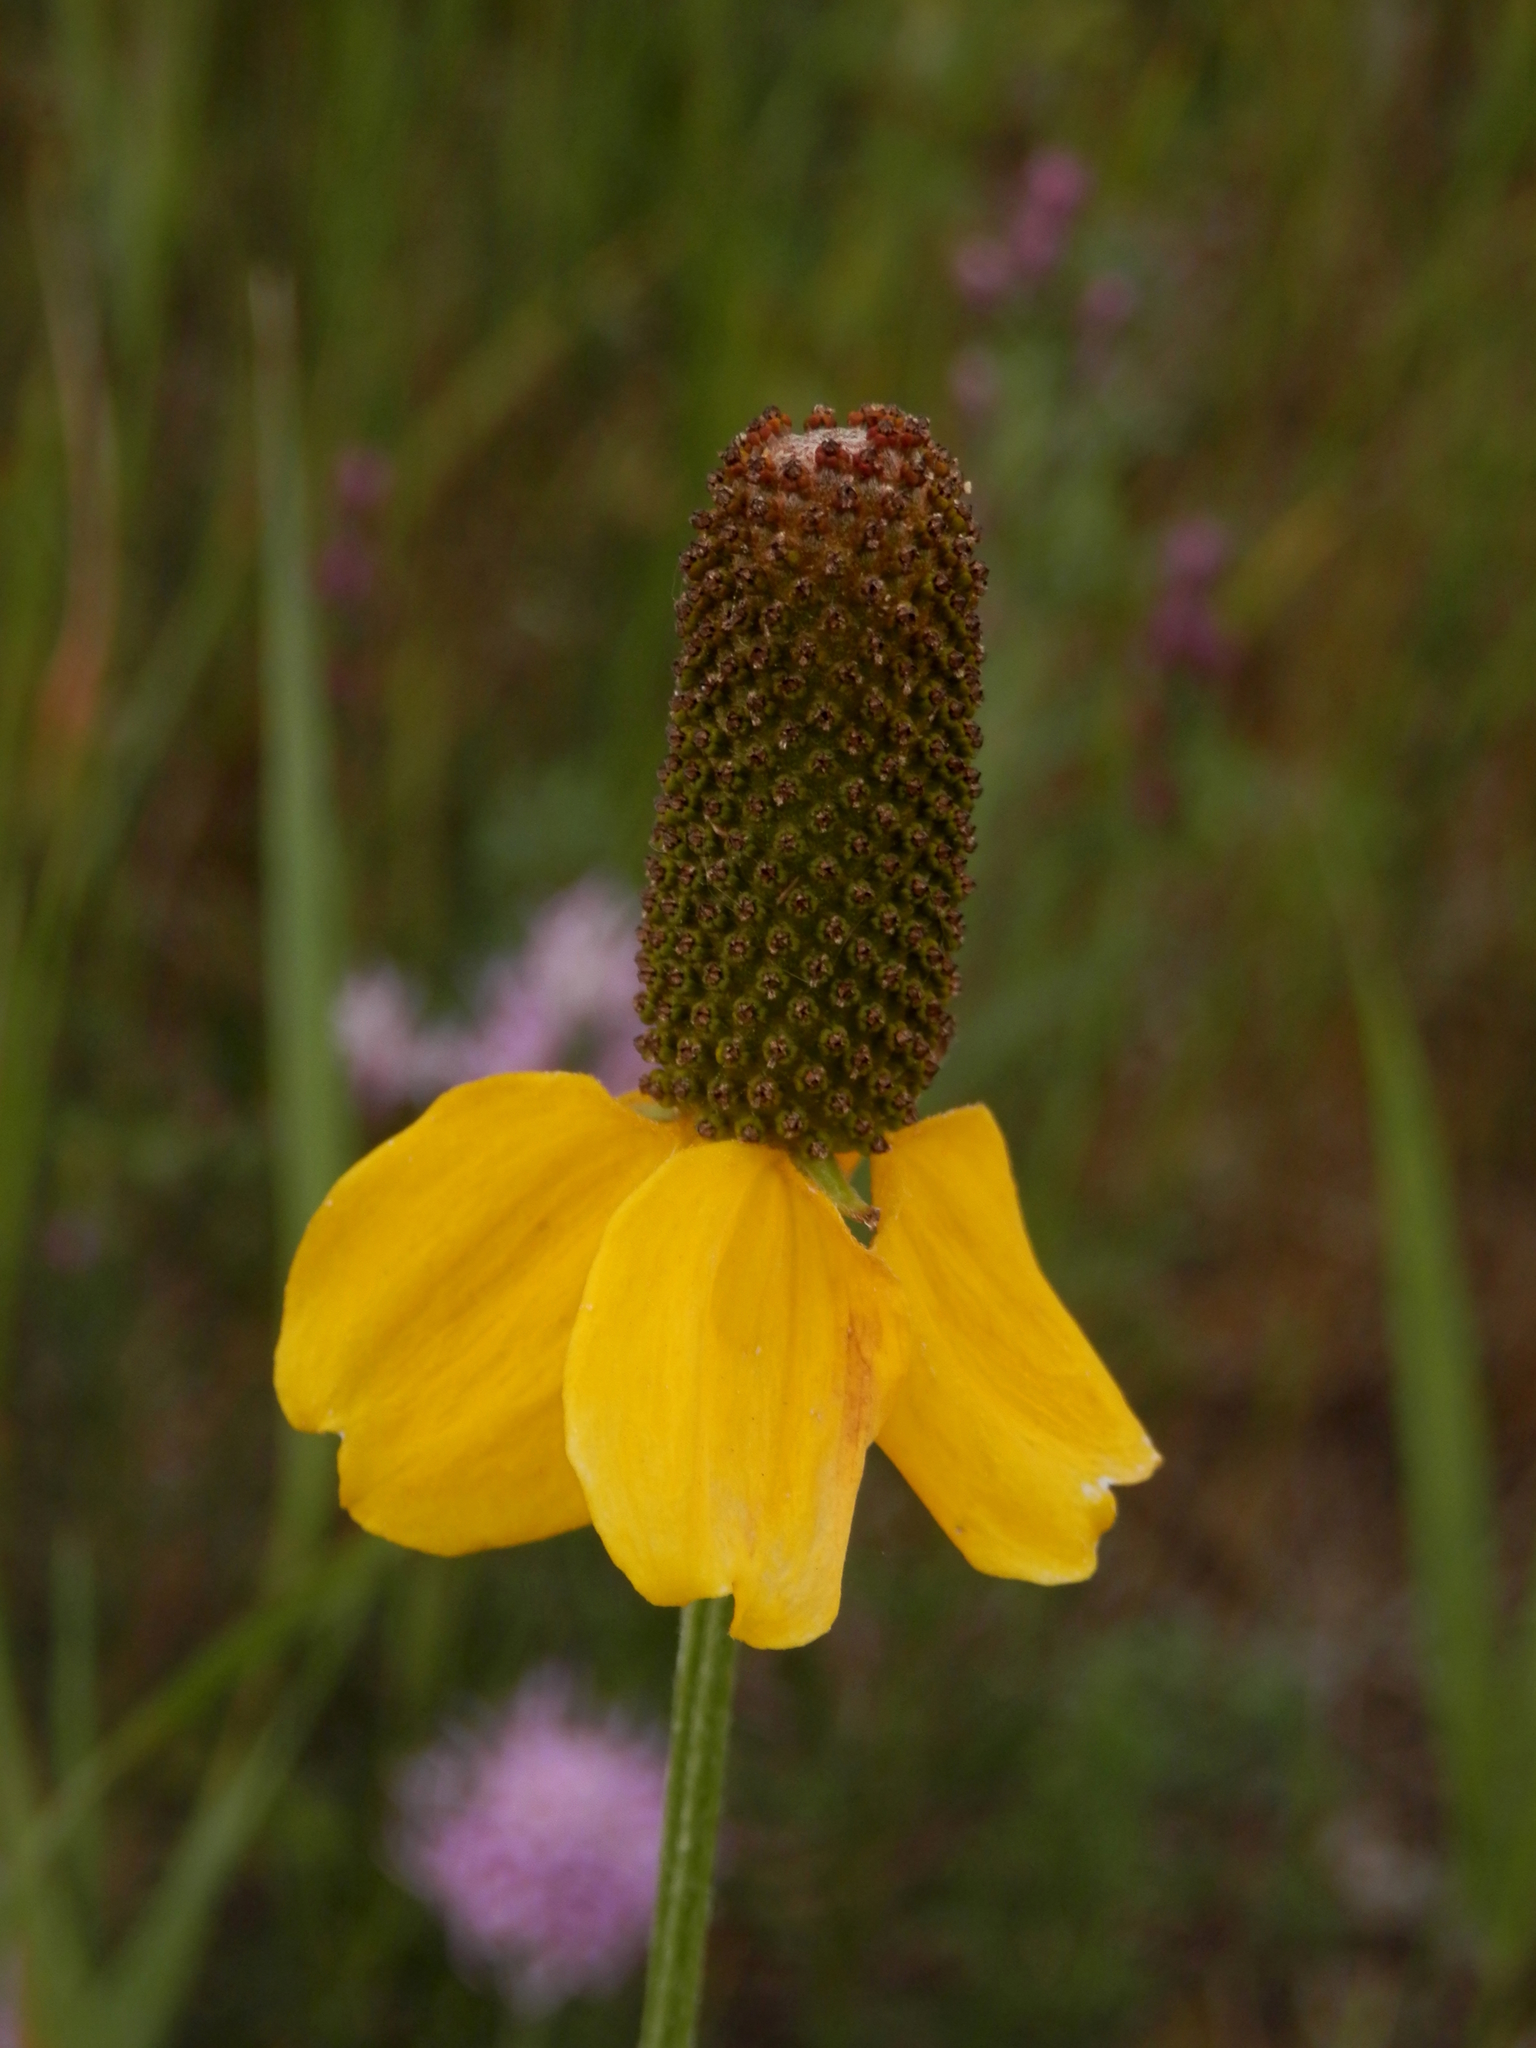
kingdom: Plantae
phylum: Tracheophyta
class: Magnoliopsida
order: Asterales
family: Asteraceae
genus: Ratibida
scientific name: Ratibida columnifera
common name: Prairie coneflower
